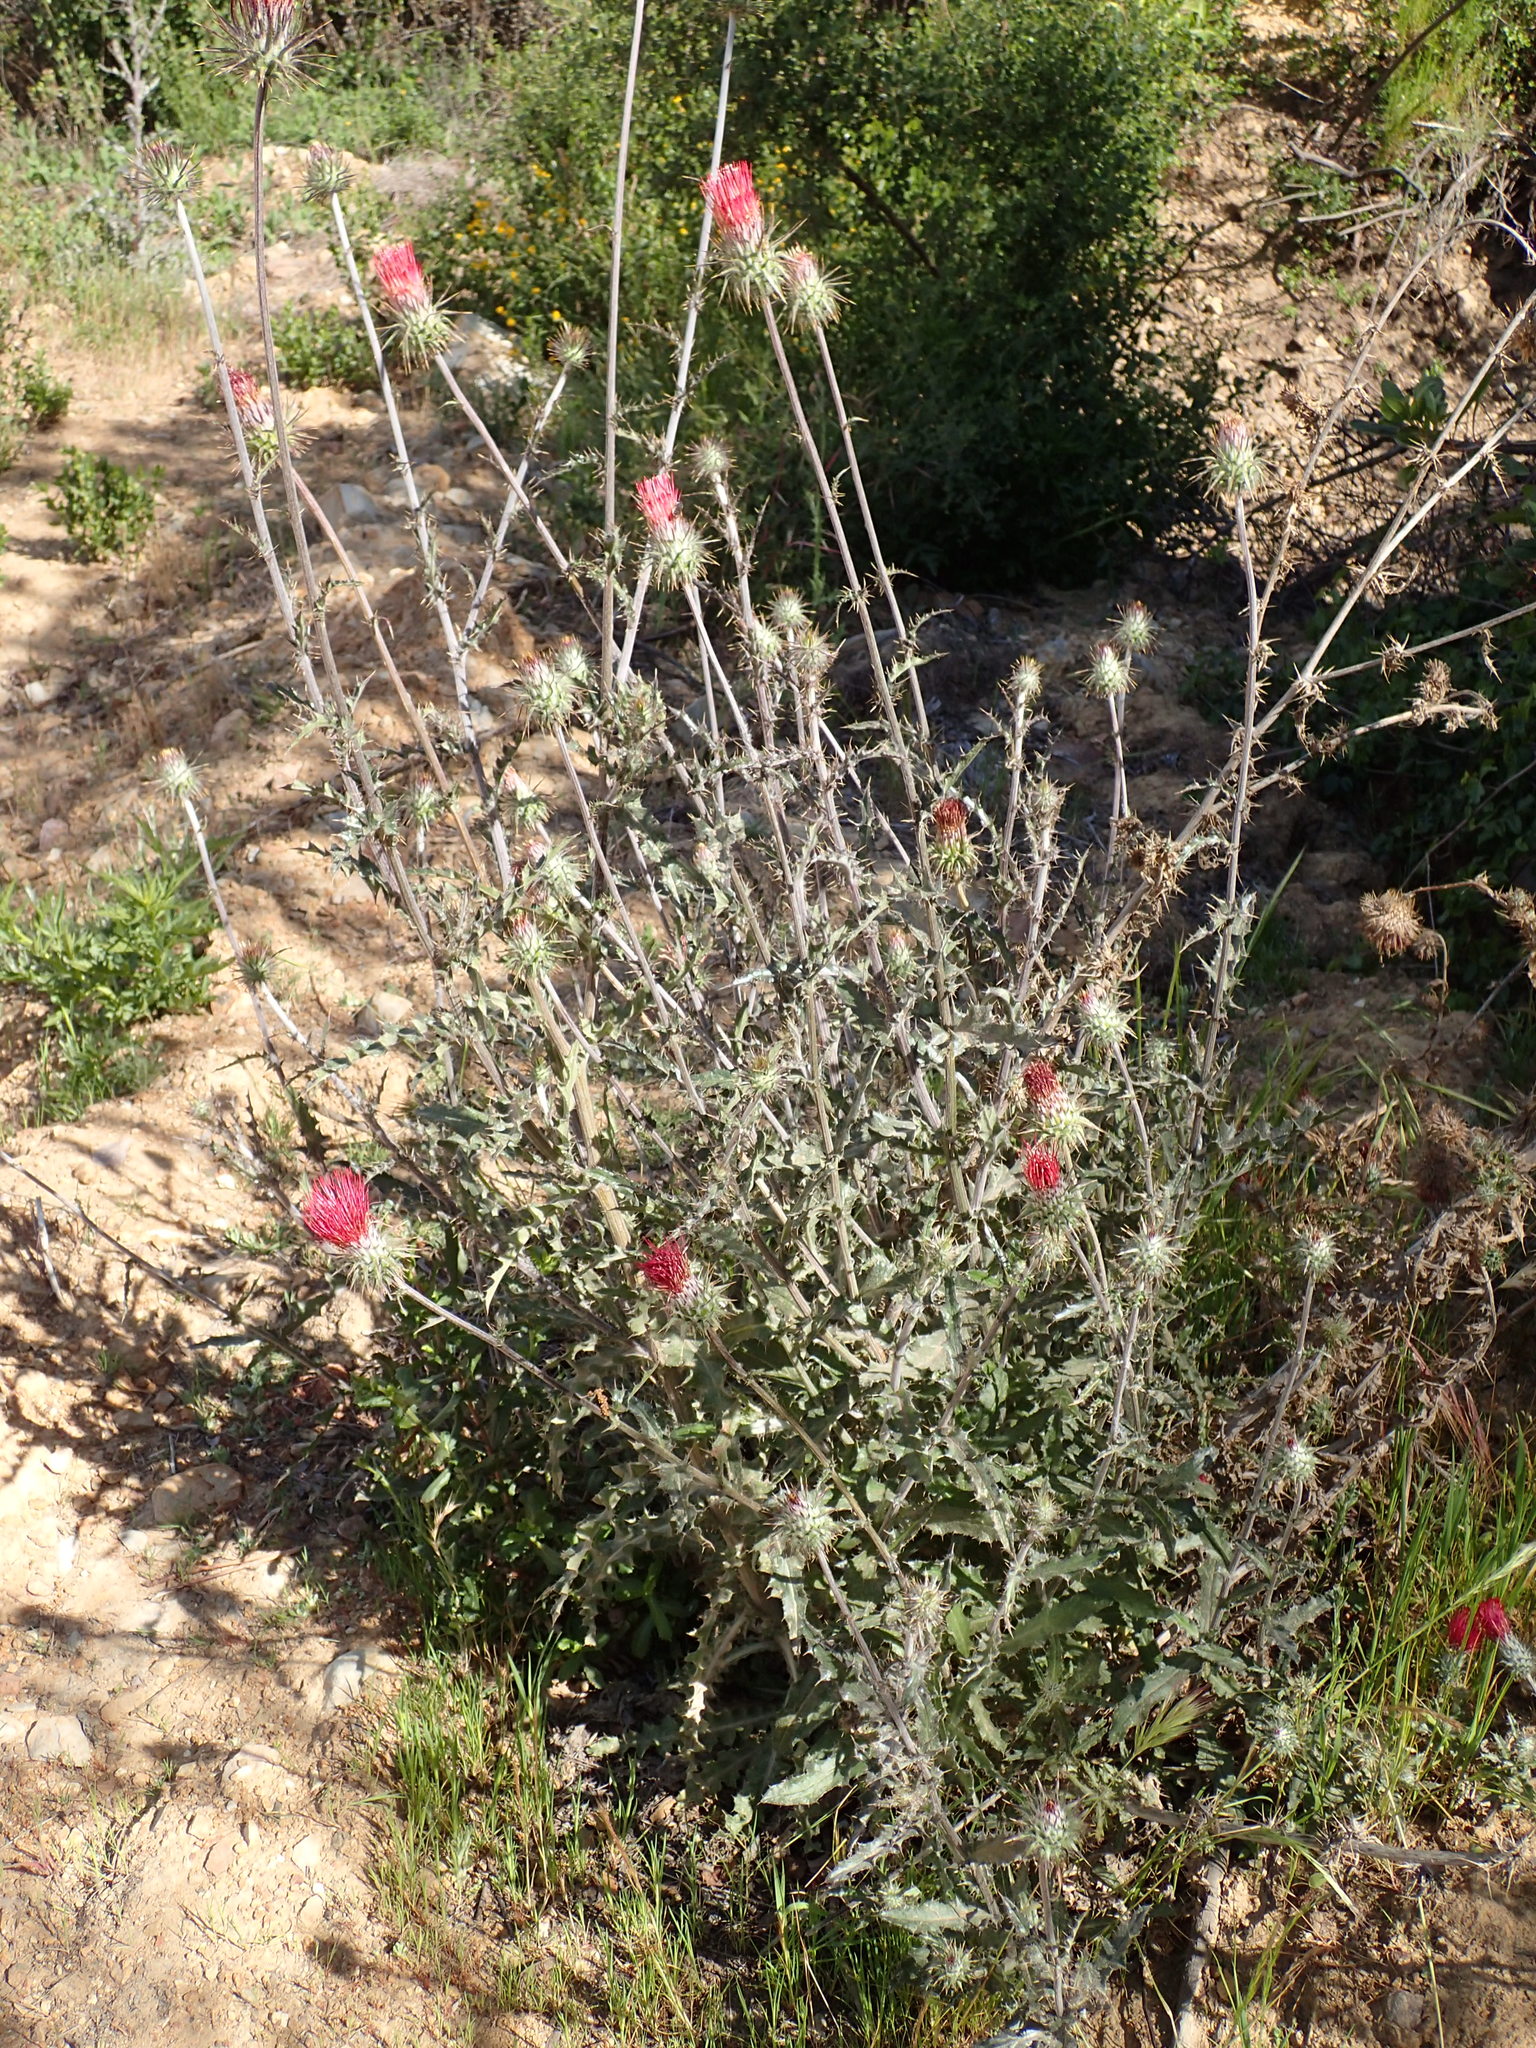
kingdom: Plantae
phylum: Tracheophyta
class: Magnoliopsida
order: Asterales
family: Asteraceae
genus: Cirsium
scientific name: Cirsium occidentale
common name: Western thistle
